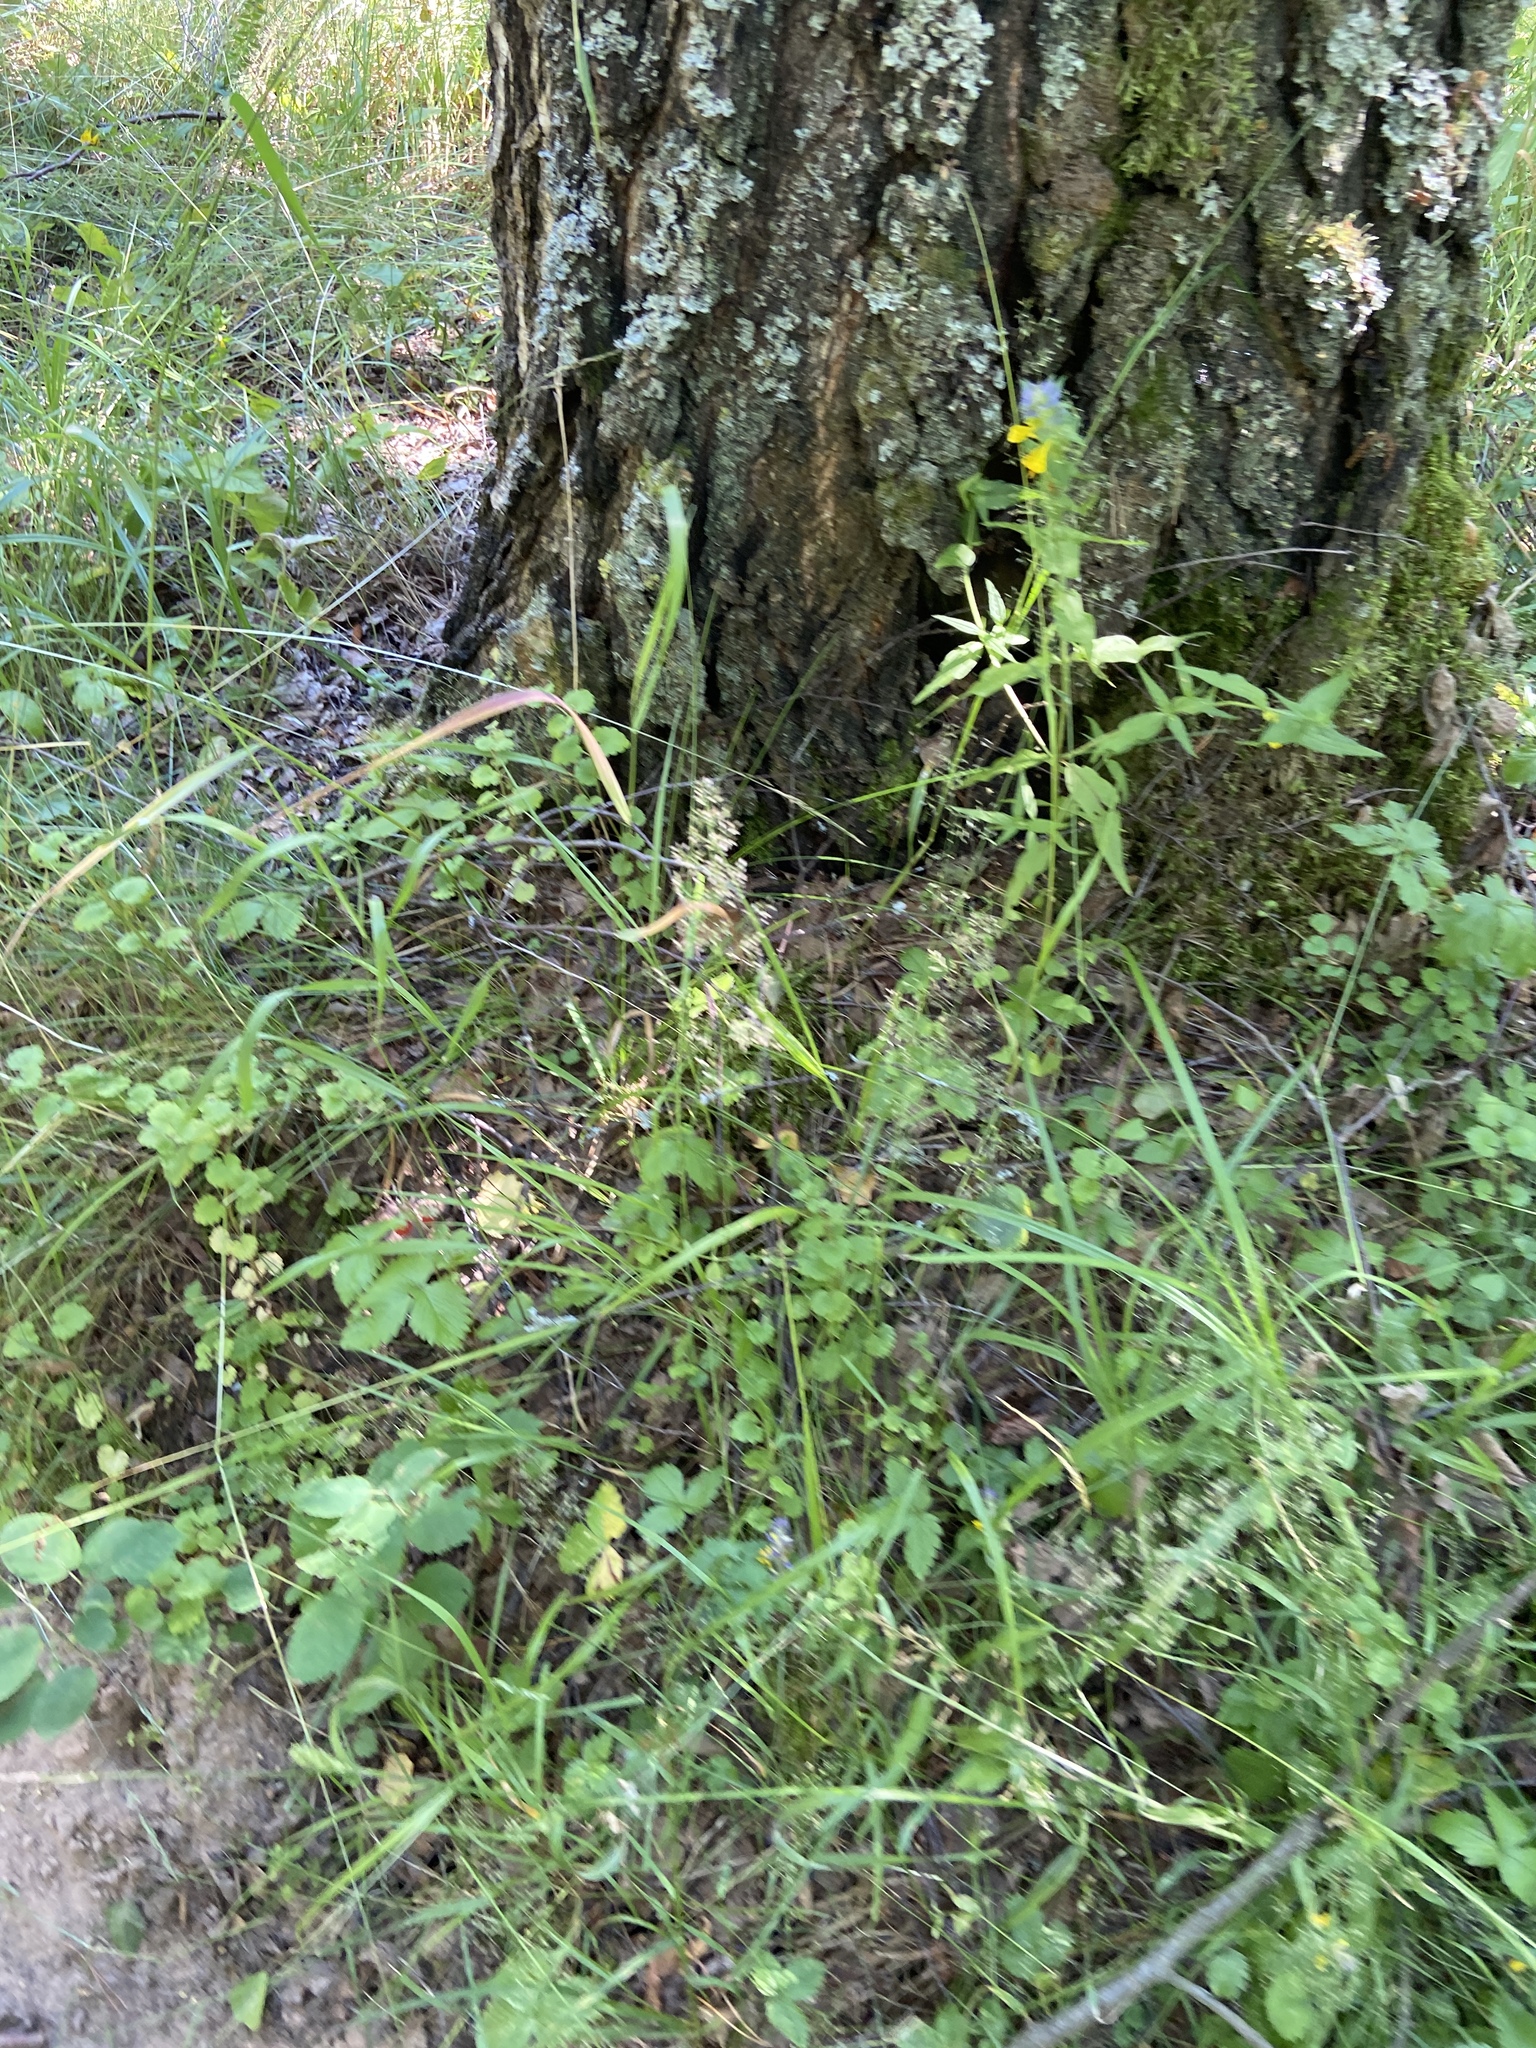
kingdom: Plantae
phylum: Tracheophyta
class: Magnoliopsida
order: Lamiales
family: Orobanchaceae
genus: Melampyrum
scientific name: Melampyrum nemorosum
